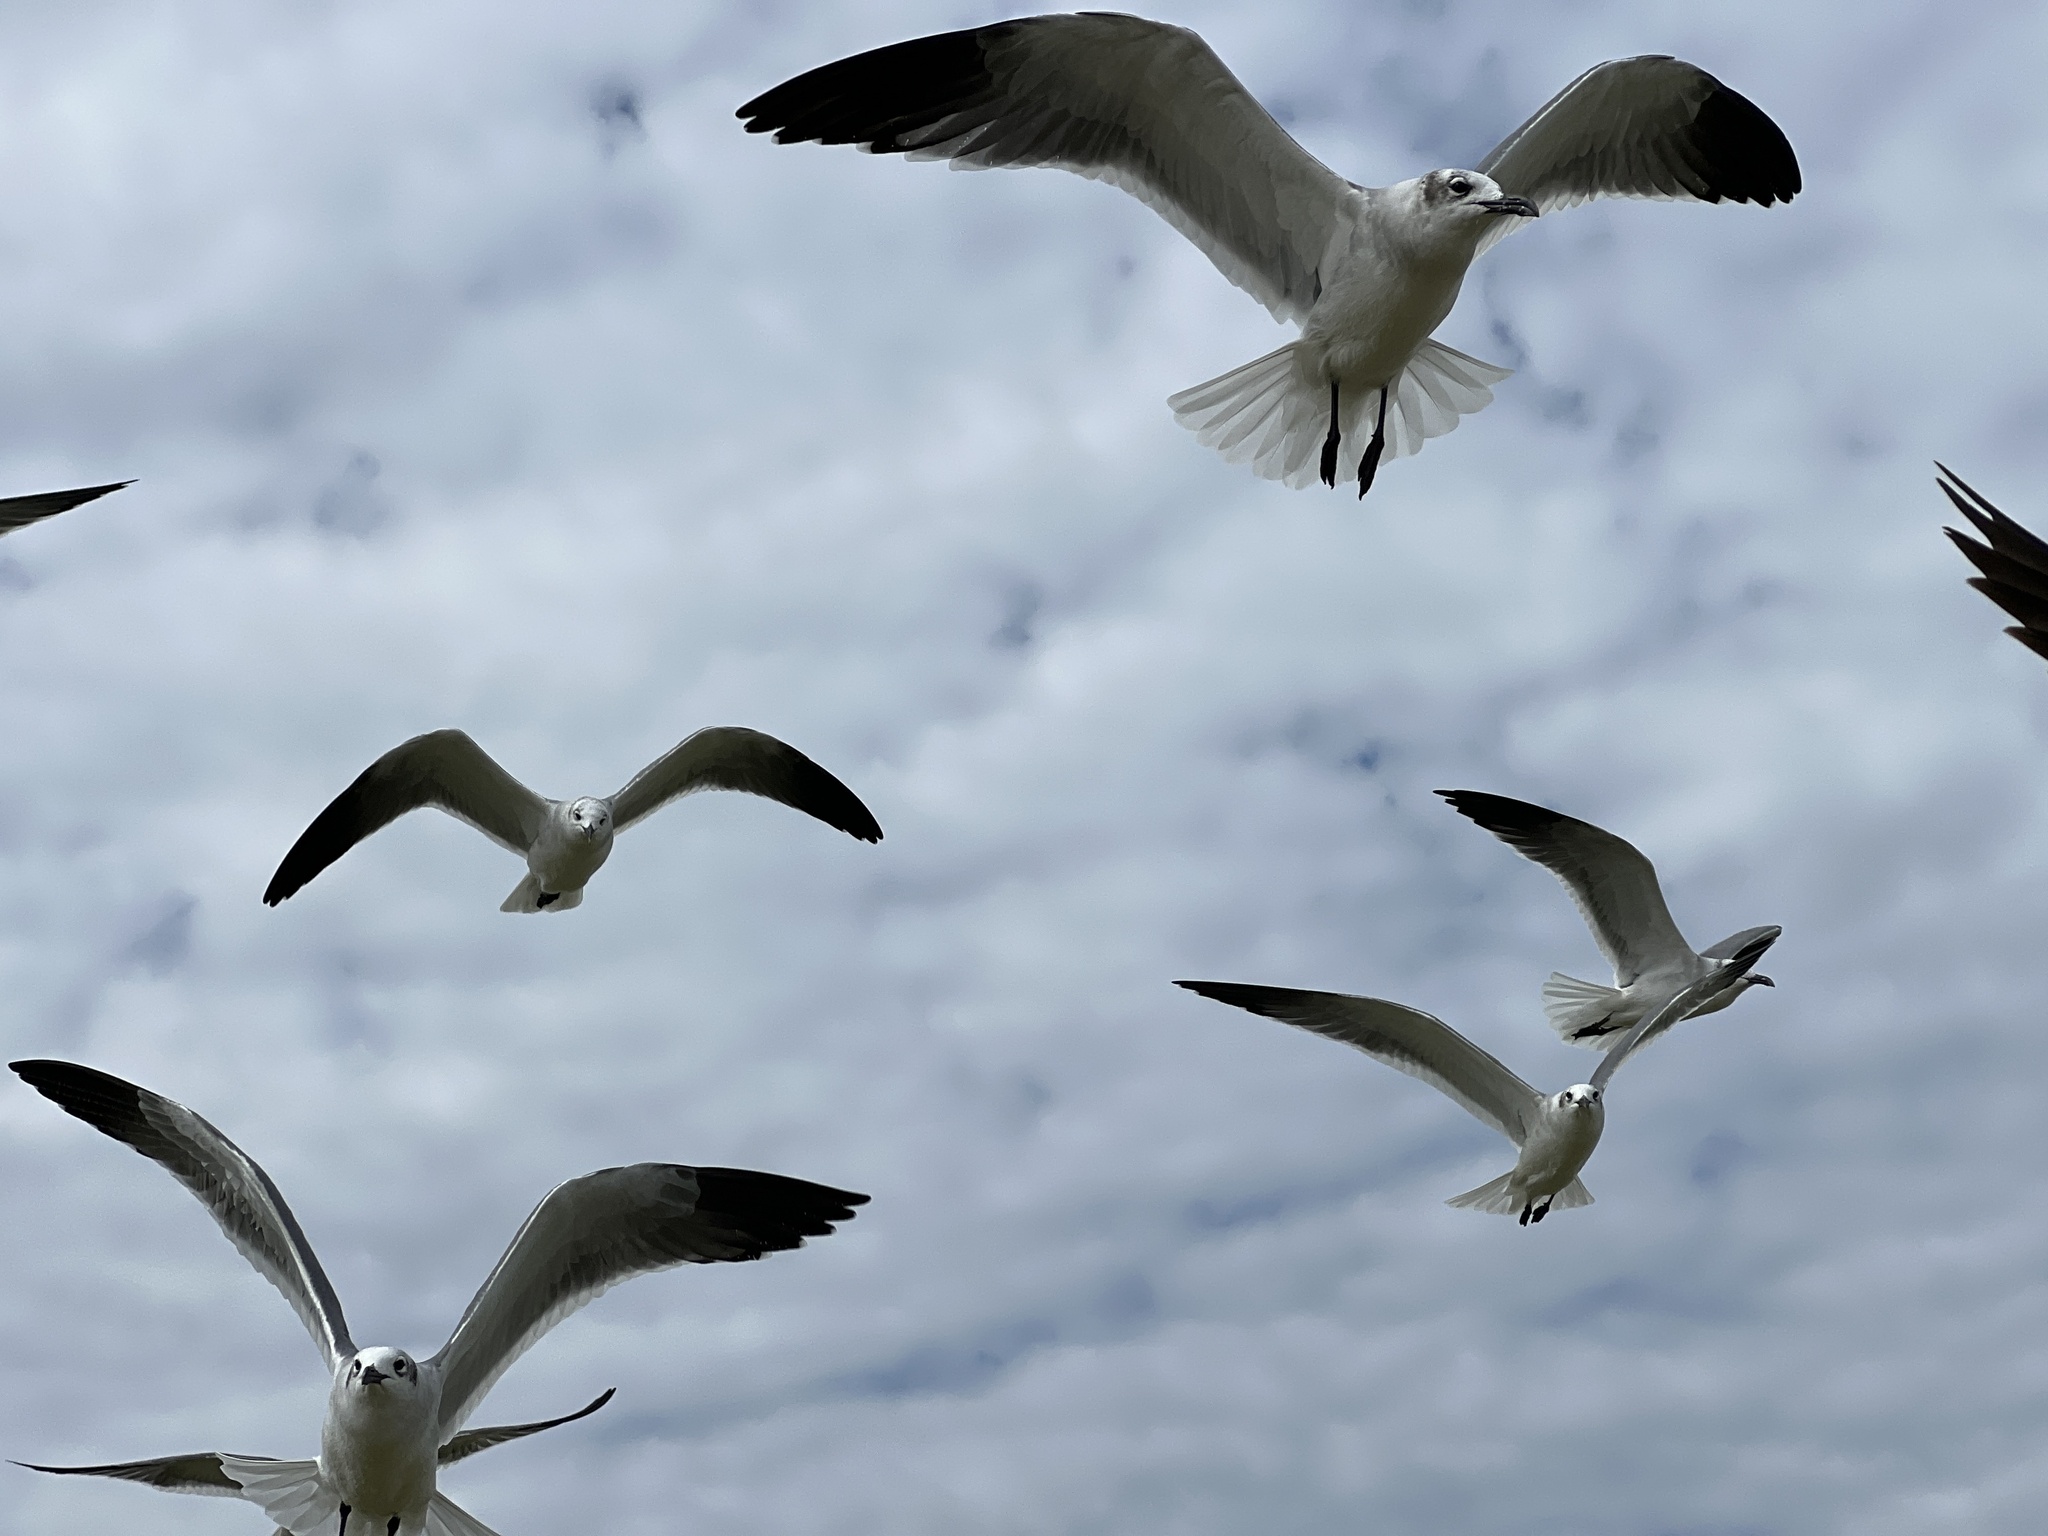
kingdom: Animalia
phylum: Chordata
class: Aves
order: Charadriiformes
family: Laridae
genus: Leucophaeus
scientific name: Leucophaeus atricilla
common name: Laughing gull
